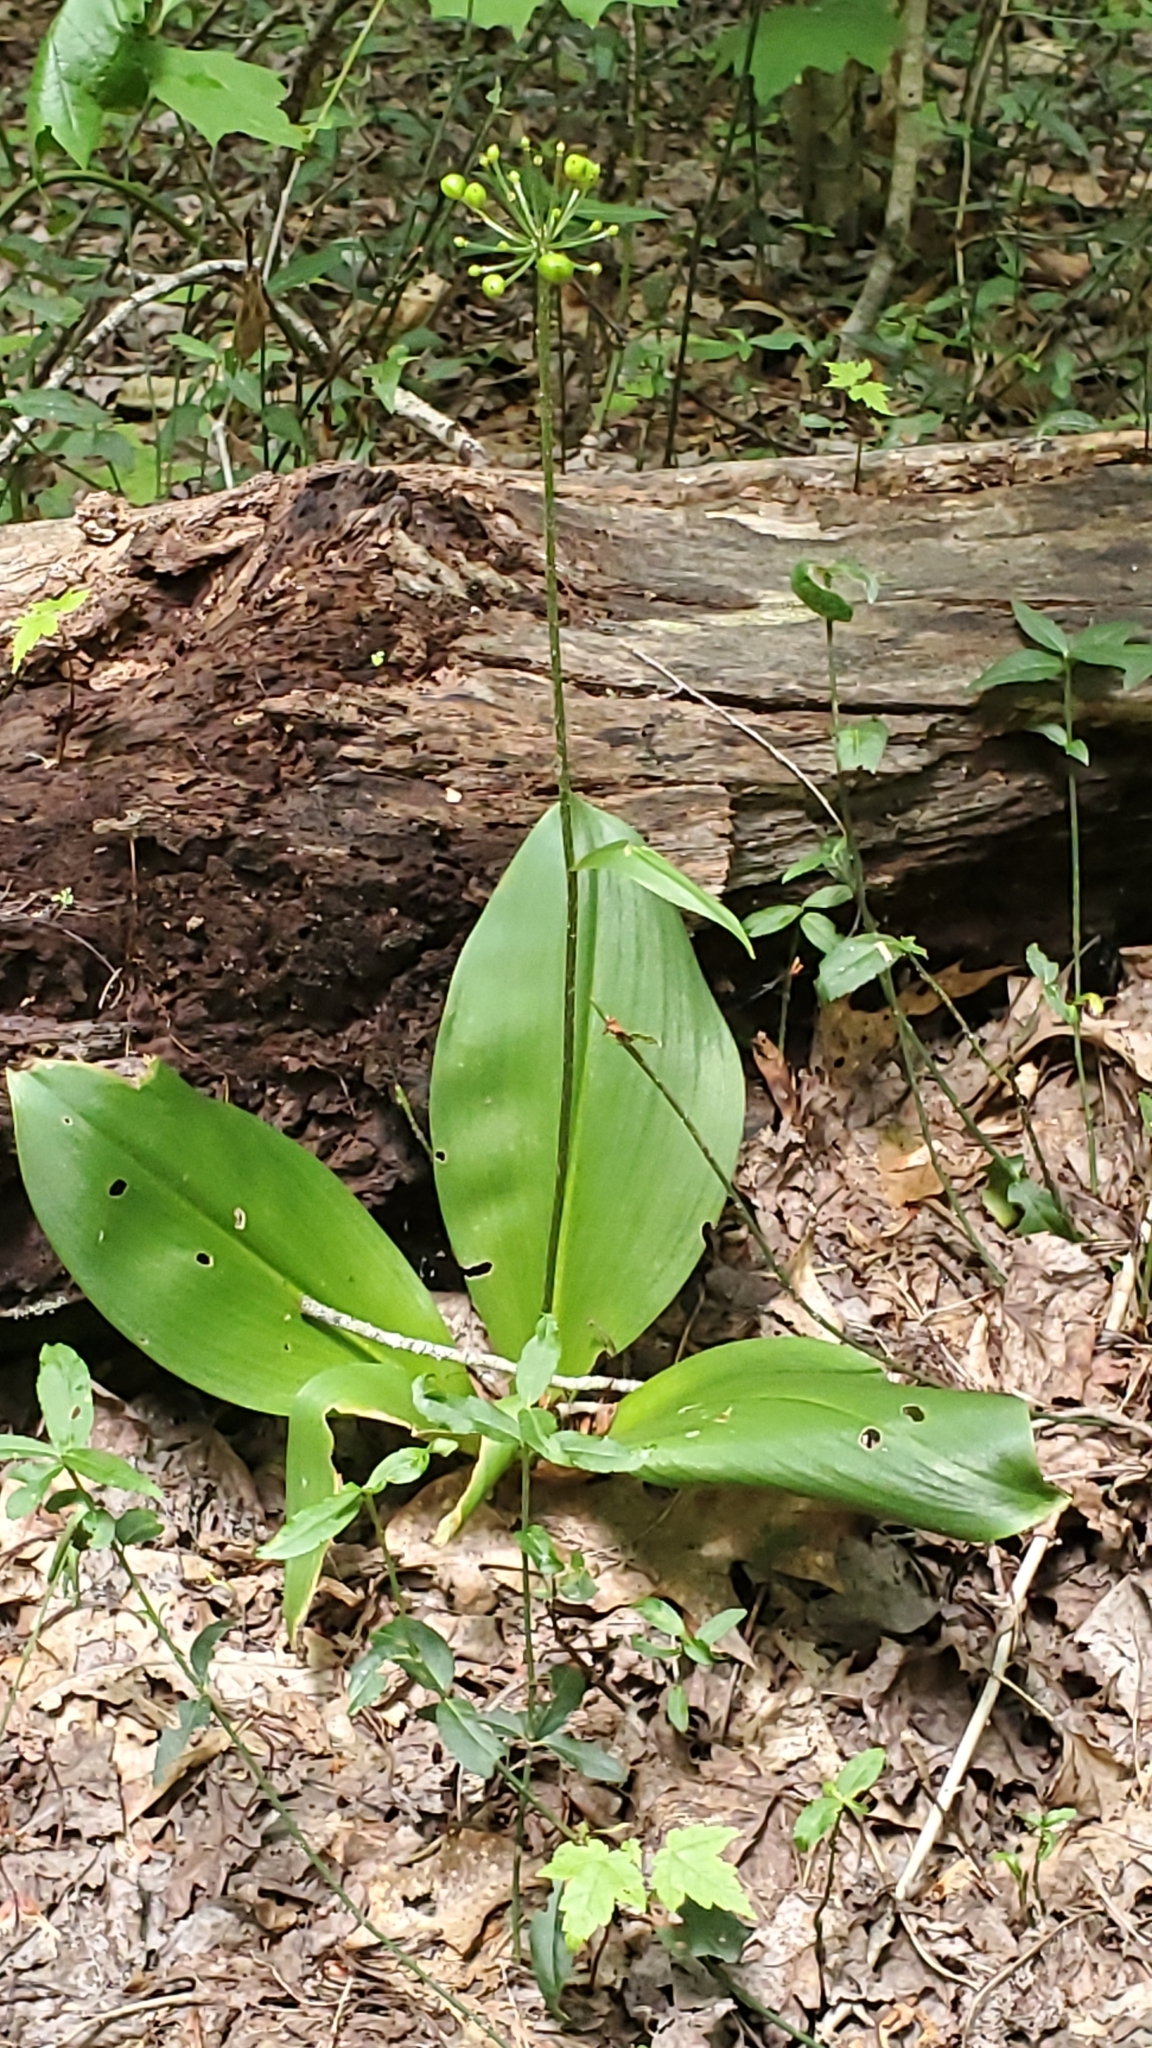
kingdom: Plantae
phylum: Tracheophyta
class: Liliopsida
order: Liliales
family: Liliaceae
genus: Clintonia
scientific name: Clintonia umbellulata
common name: Speckle wood-lily
